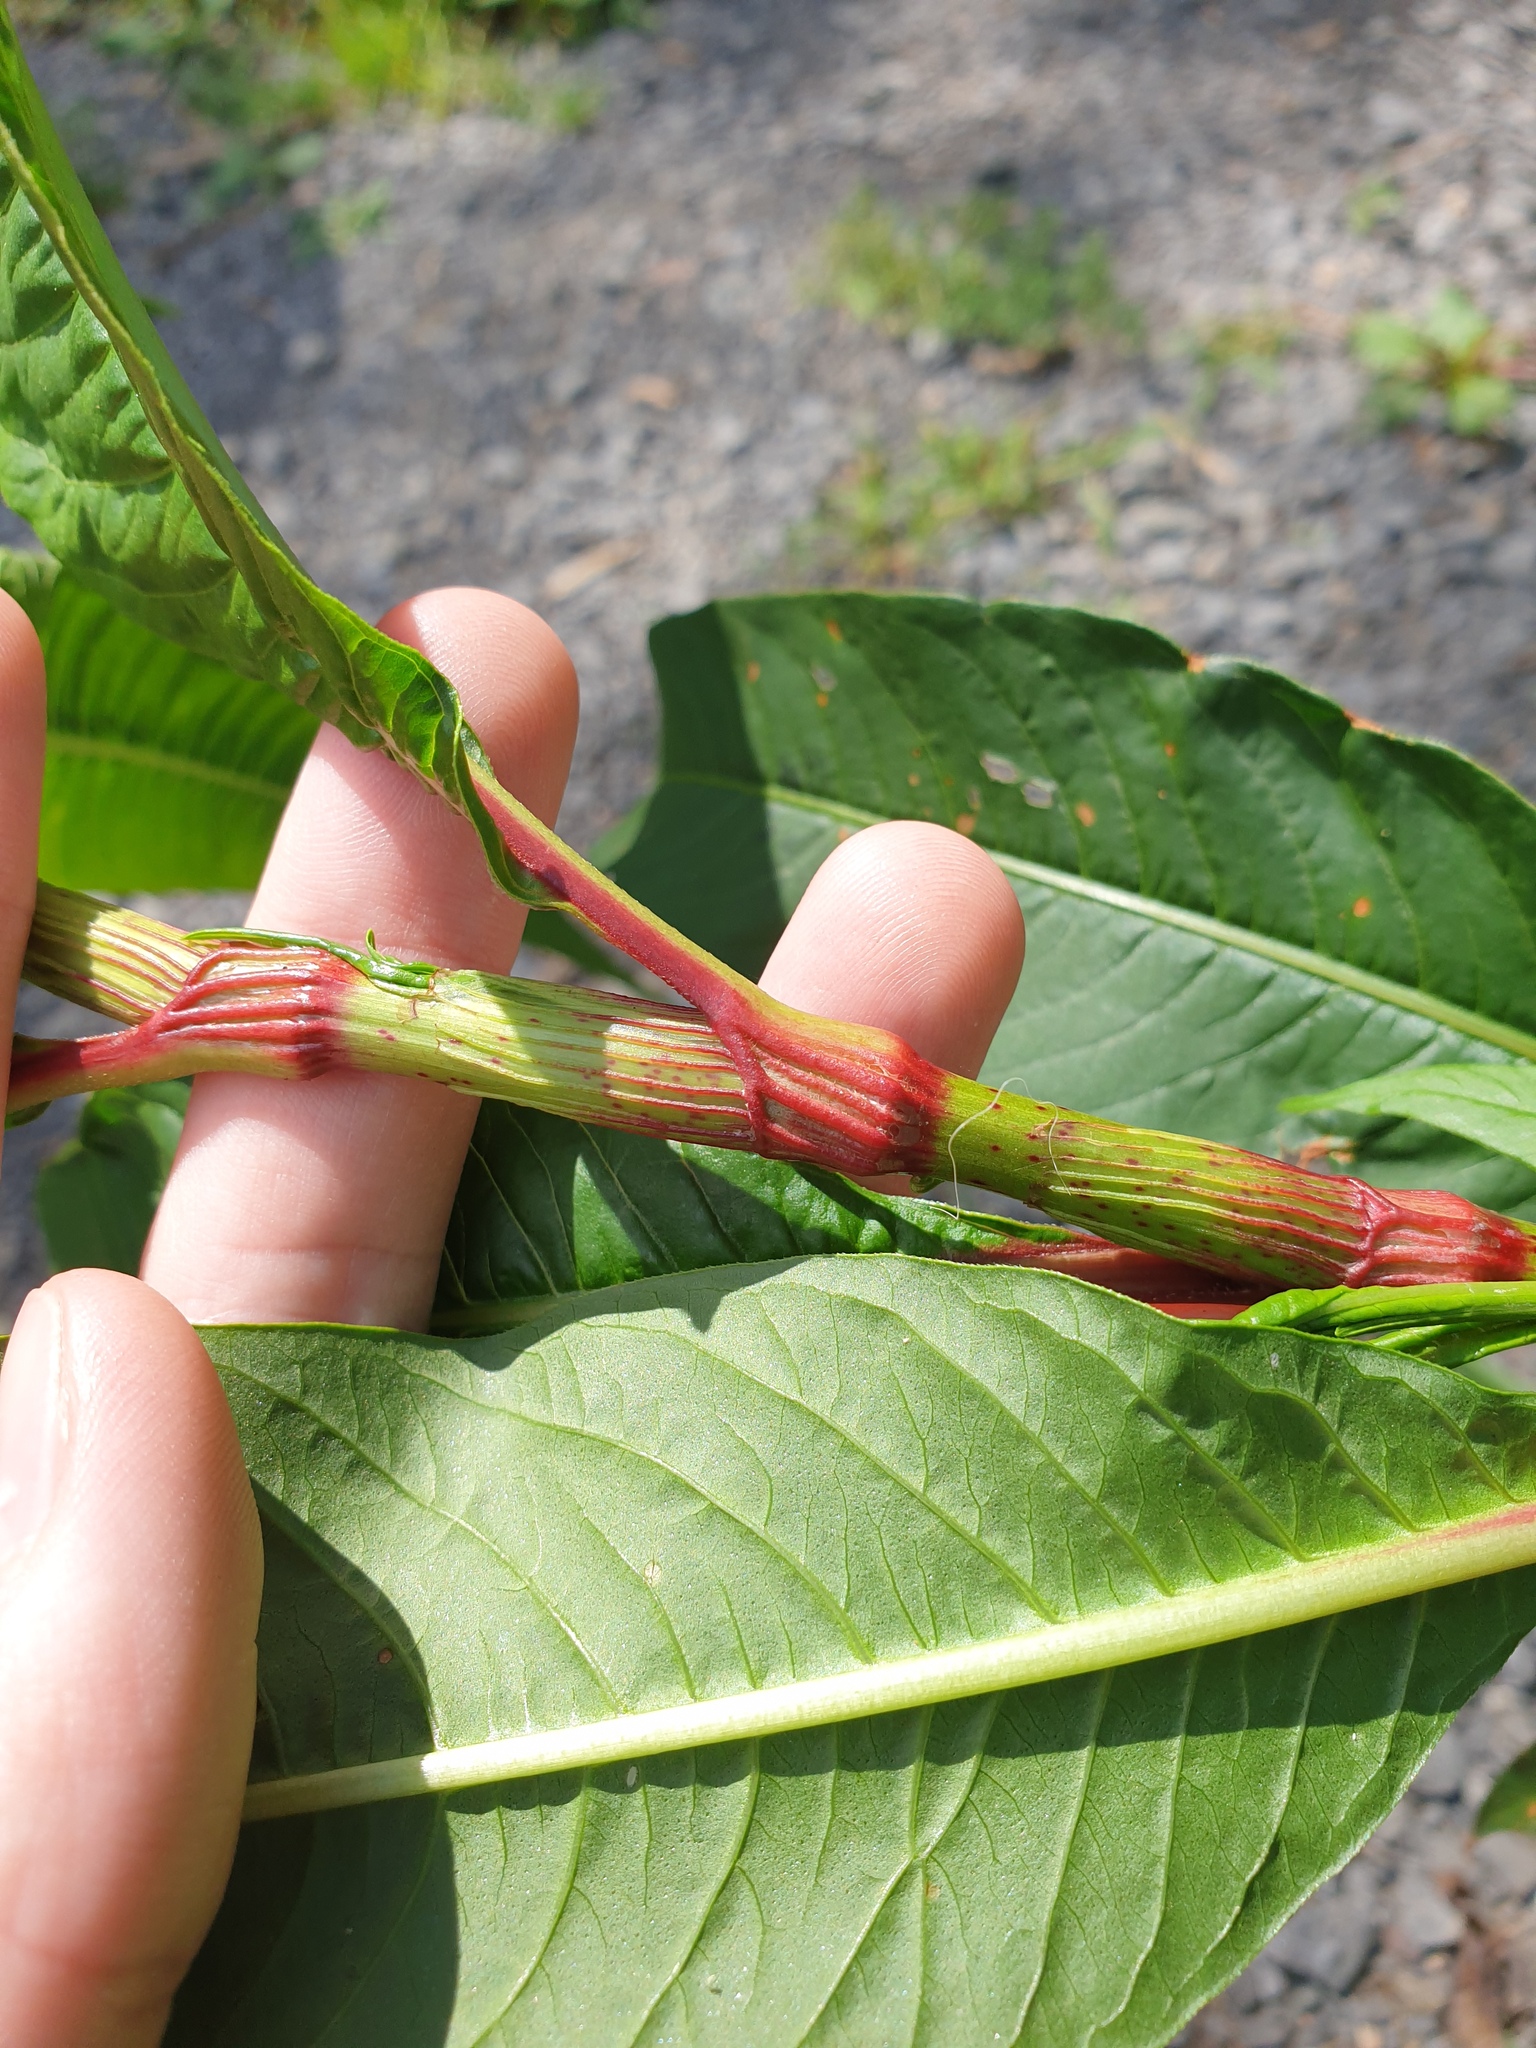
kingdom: Plantae
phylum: Tracheophyta
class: Magnoliopsida
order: Caryophyllales
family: Polygonaceae
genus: Persicaria
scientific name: Persicaria lapathifolia
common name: Curlytop knotweed
